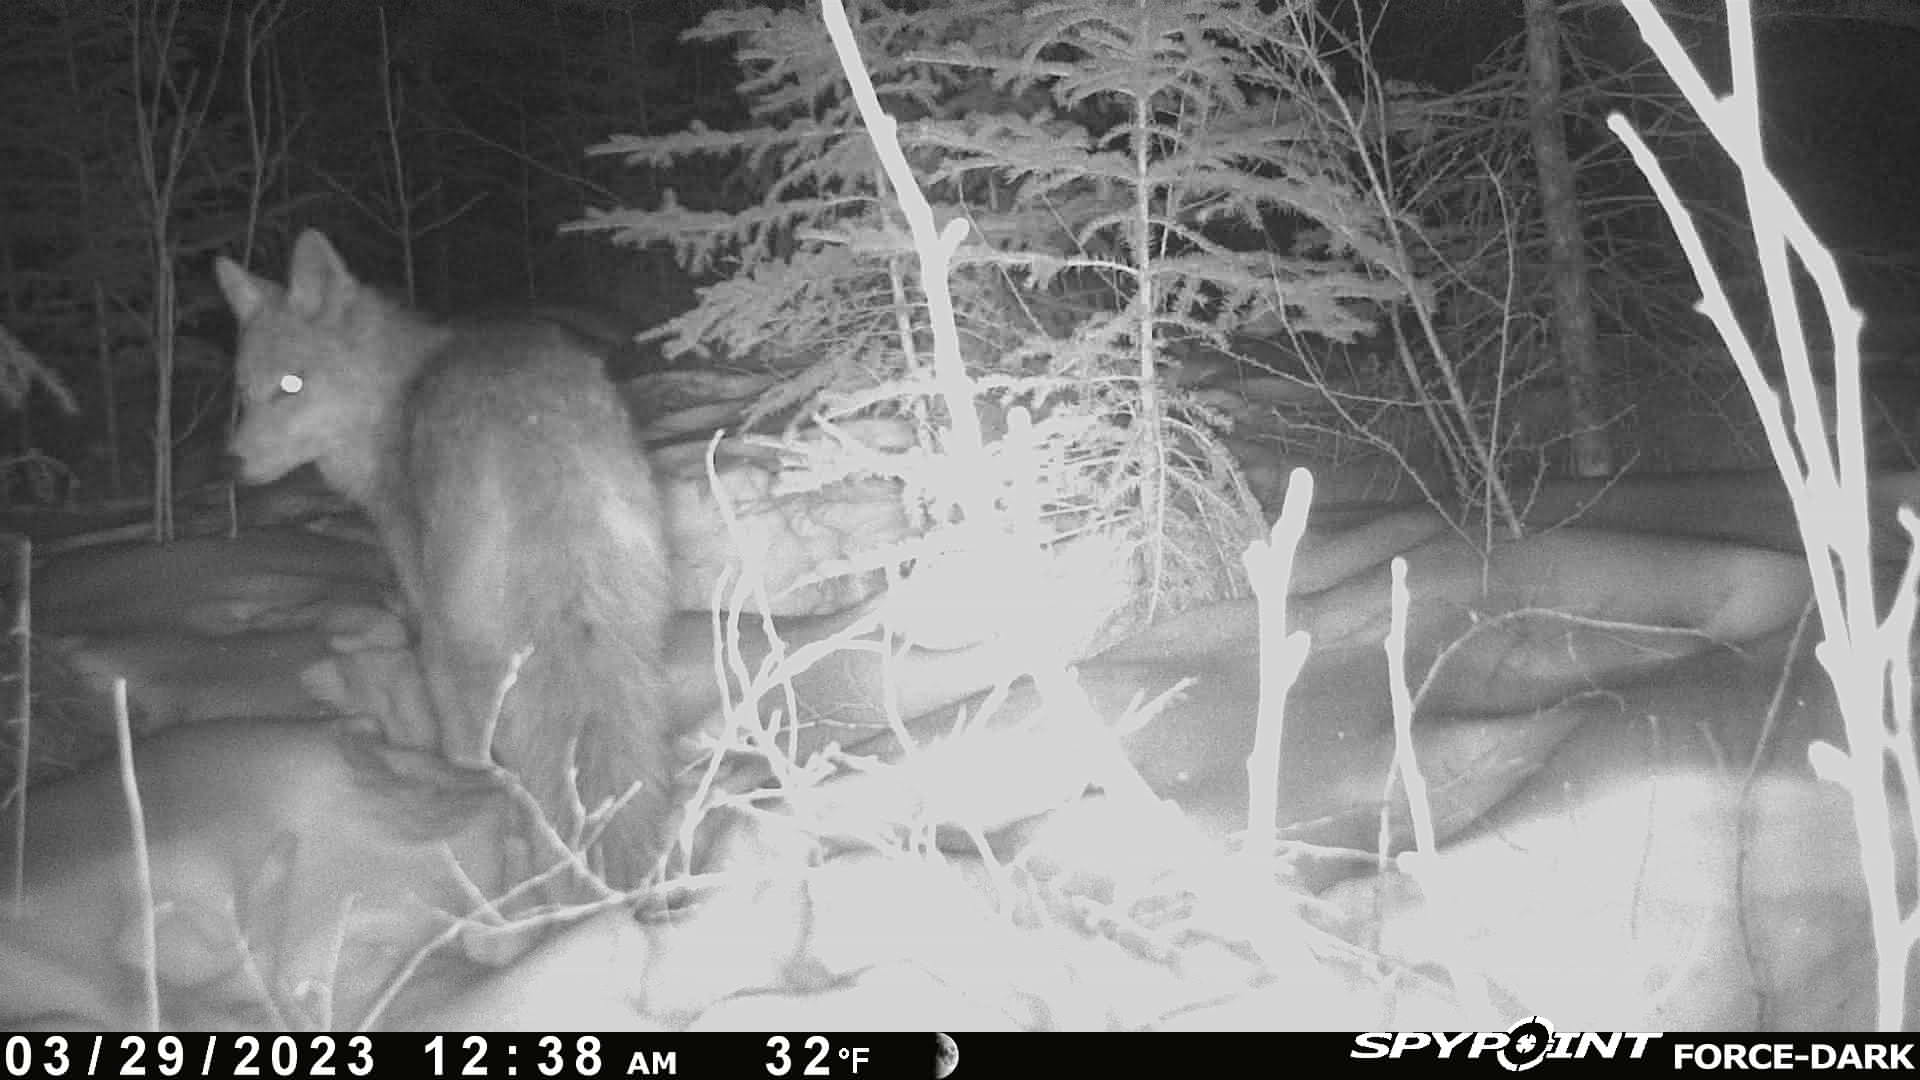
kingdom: Animalia
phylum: Chordata
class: Mammalia
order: Carnivora
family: Canidae
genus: Canis
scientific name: Canis latrans
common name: Coyote
